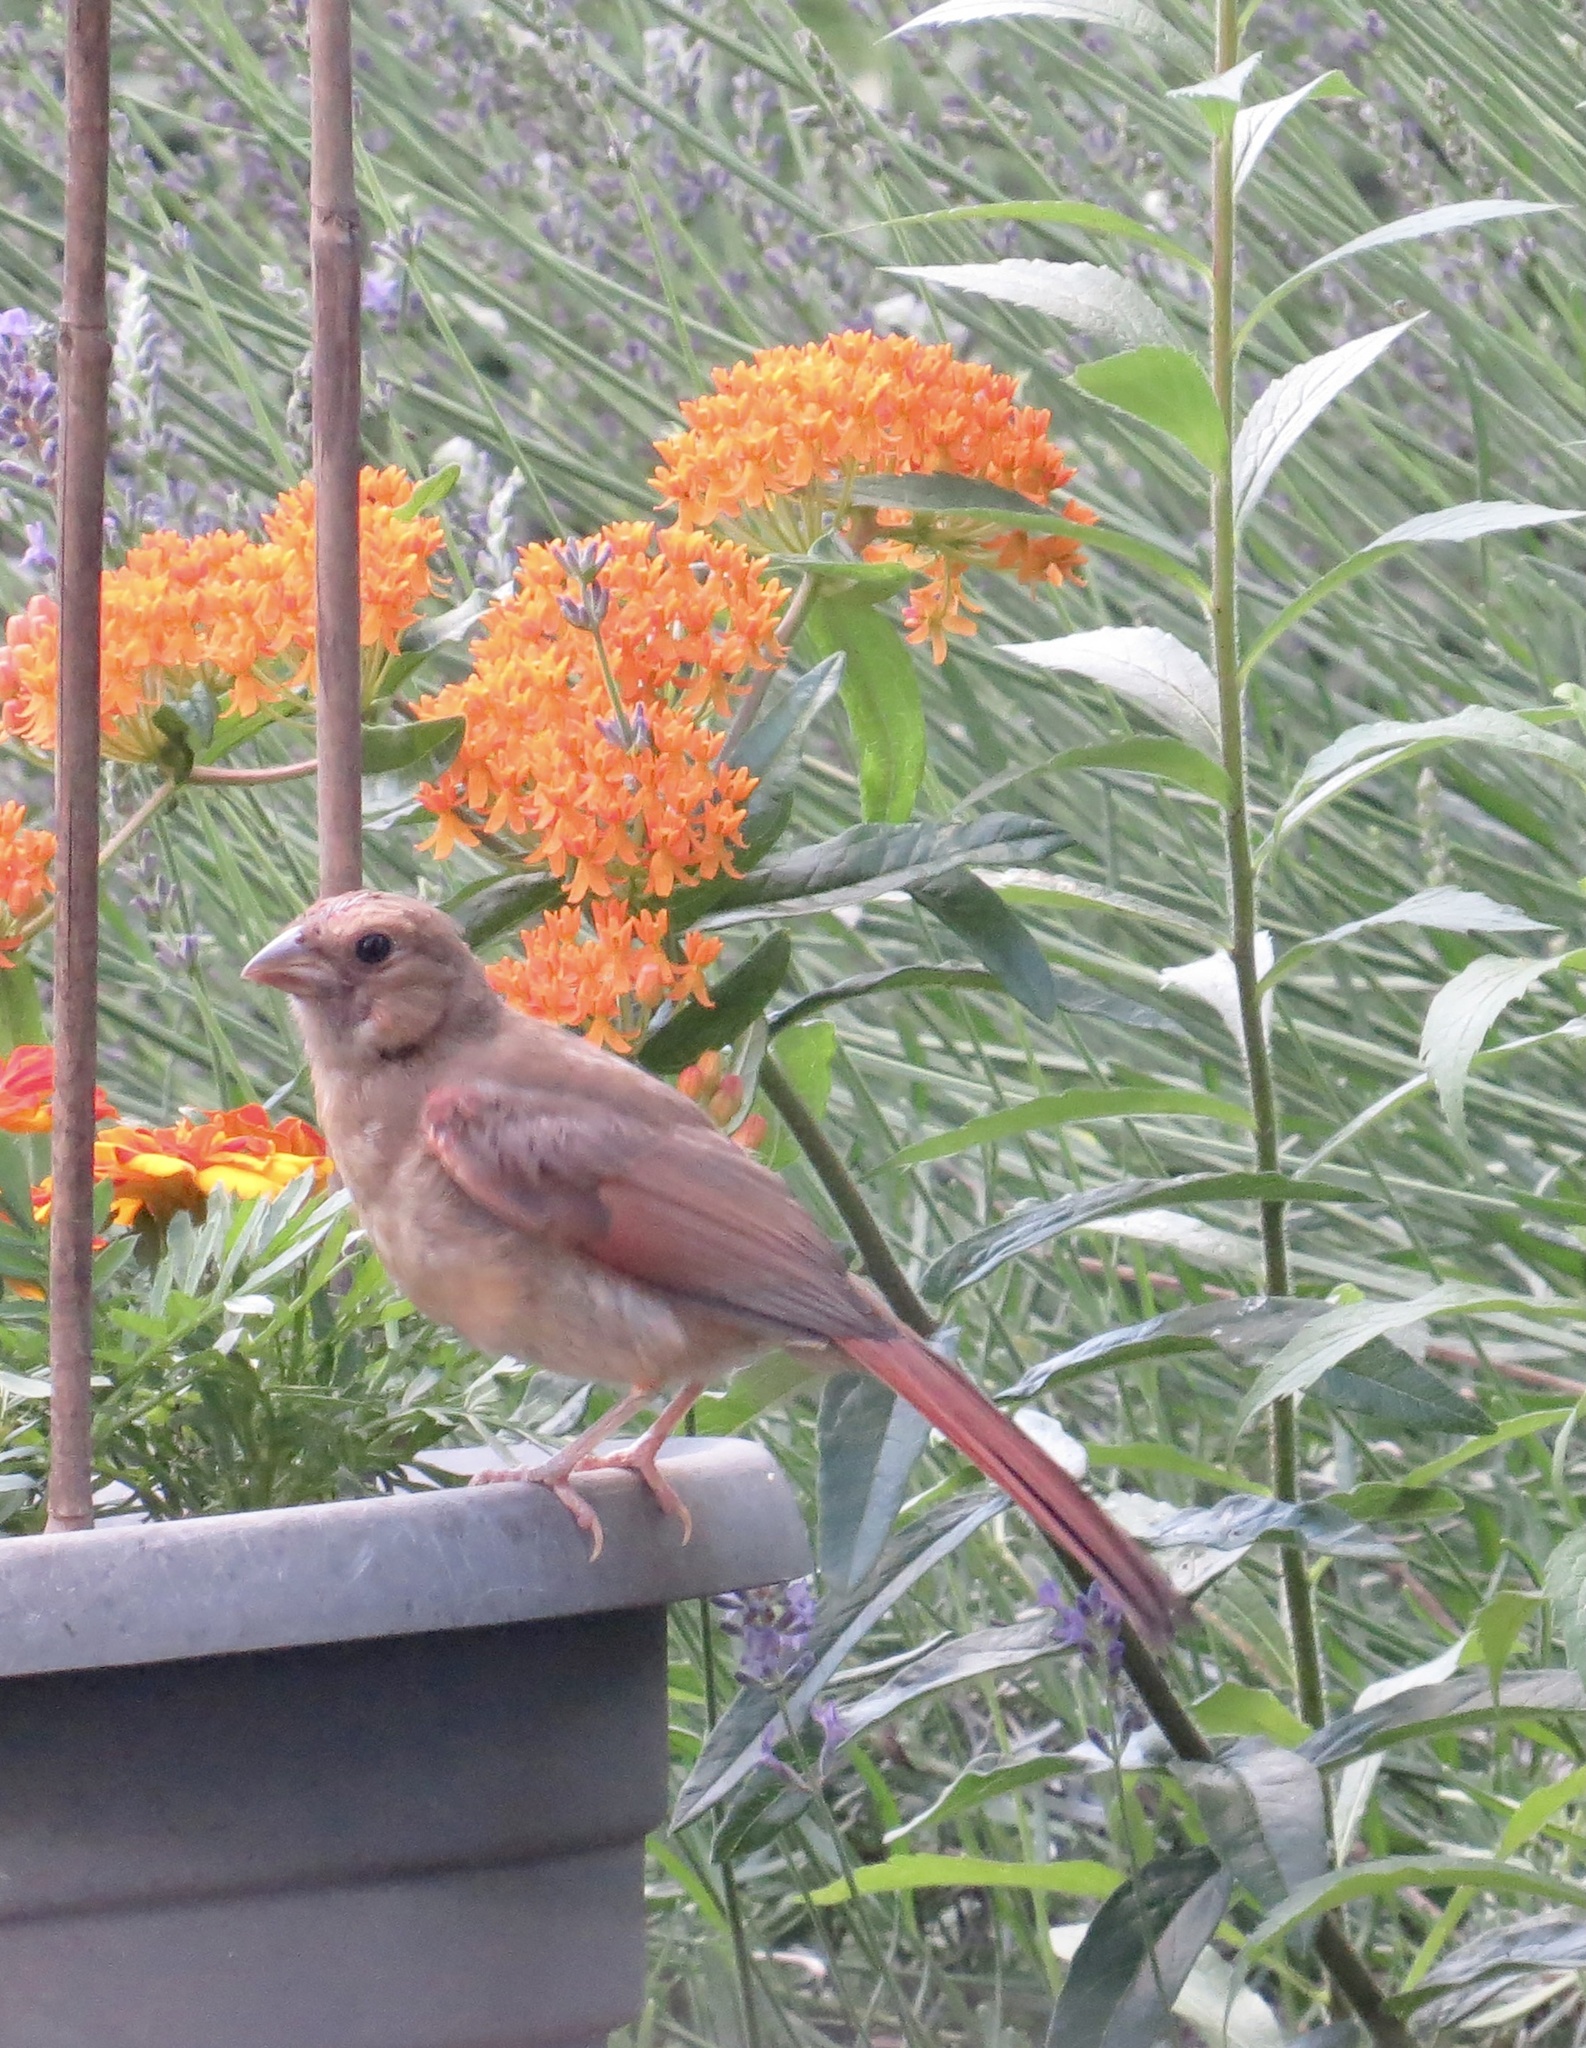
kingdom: Animalia
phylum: Chordata
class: Aves
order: Passeriformes
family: Cardinalidae
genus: Cardinalis
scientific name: Cardinalis cardinalis
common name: Northern cardinal
